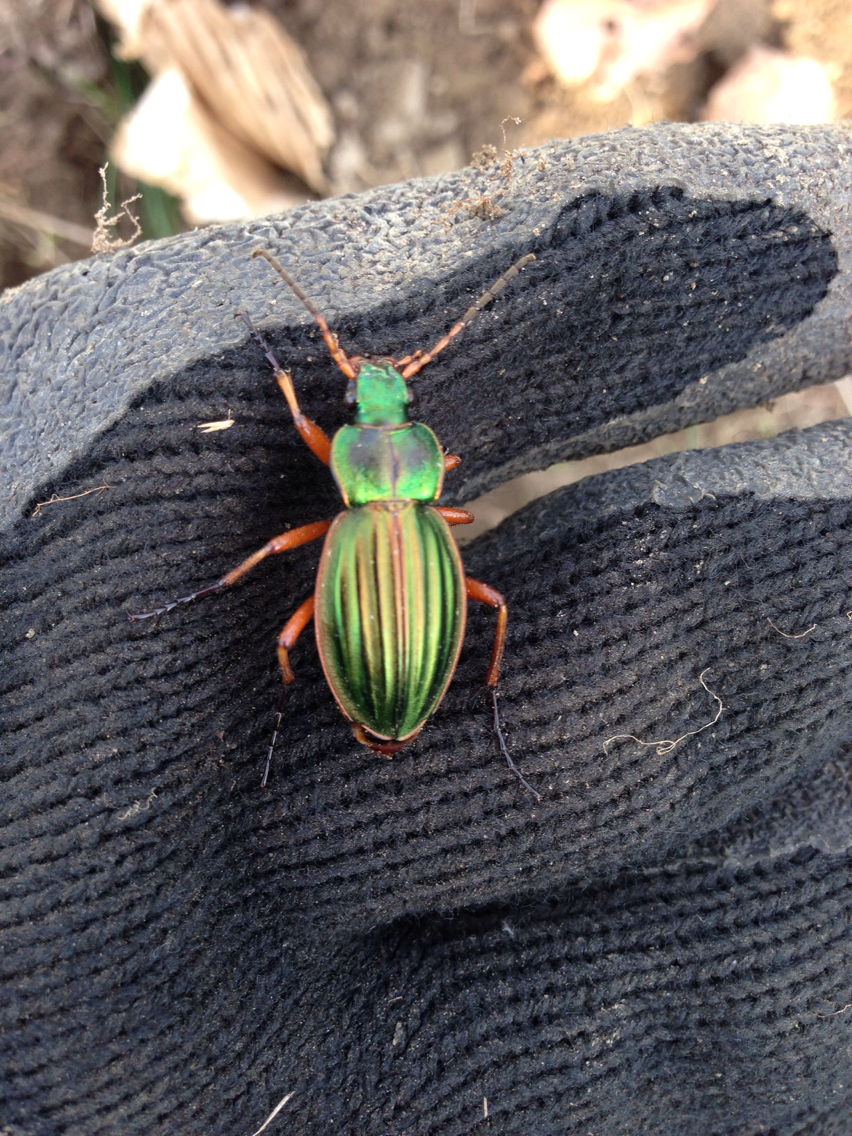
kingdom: Animalia
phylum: Arthropoda
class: Insecta
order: Coleoptera
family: Carabidae
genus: Carabus
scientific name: Carabus auratus
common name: Golden ground beetle
